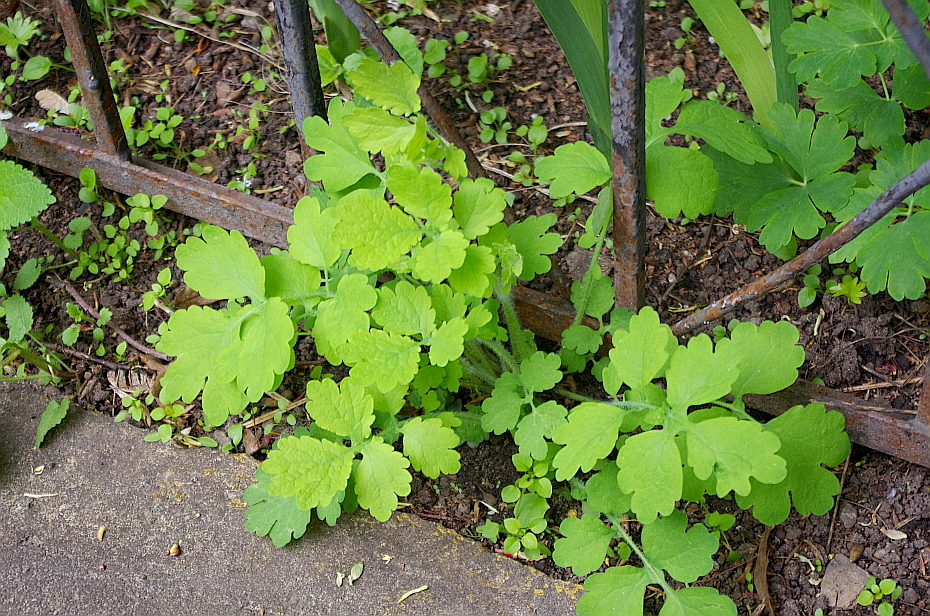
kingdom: Plantae
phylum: Tracheophyta
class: Magnoliopsida
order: Ranunculales
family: Papaveraceae
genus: Chelidonium
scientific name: Chelidonium majus
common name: Greater celandine
